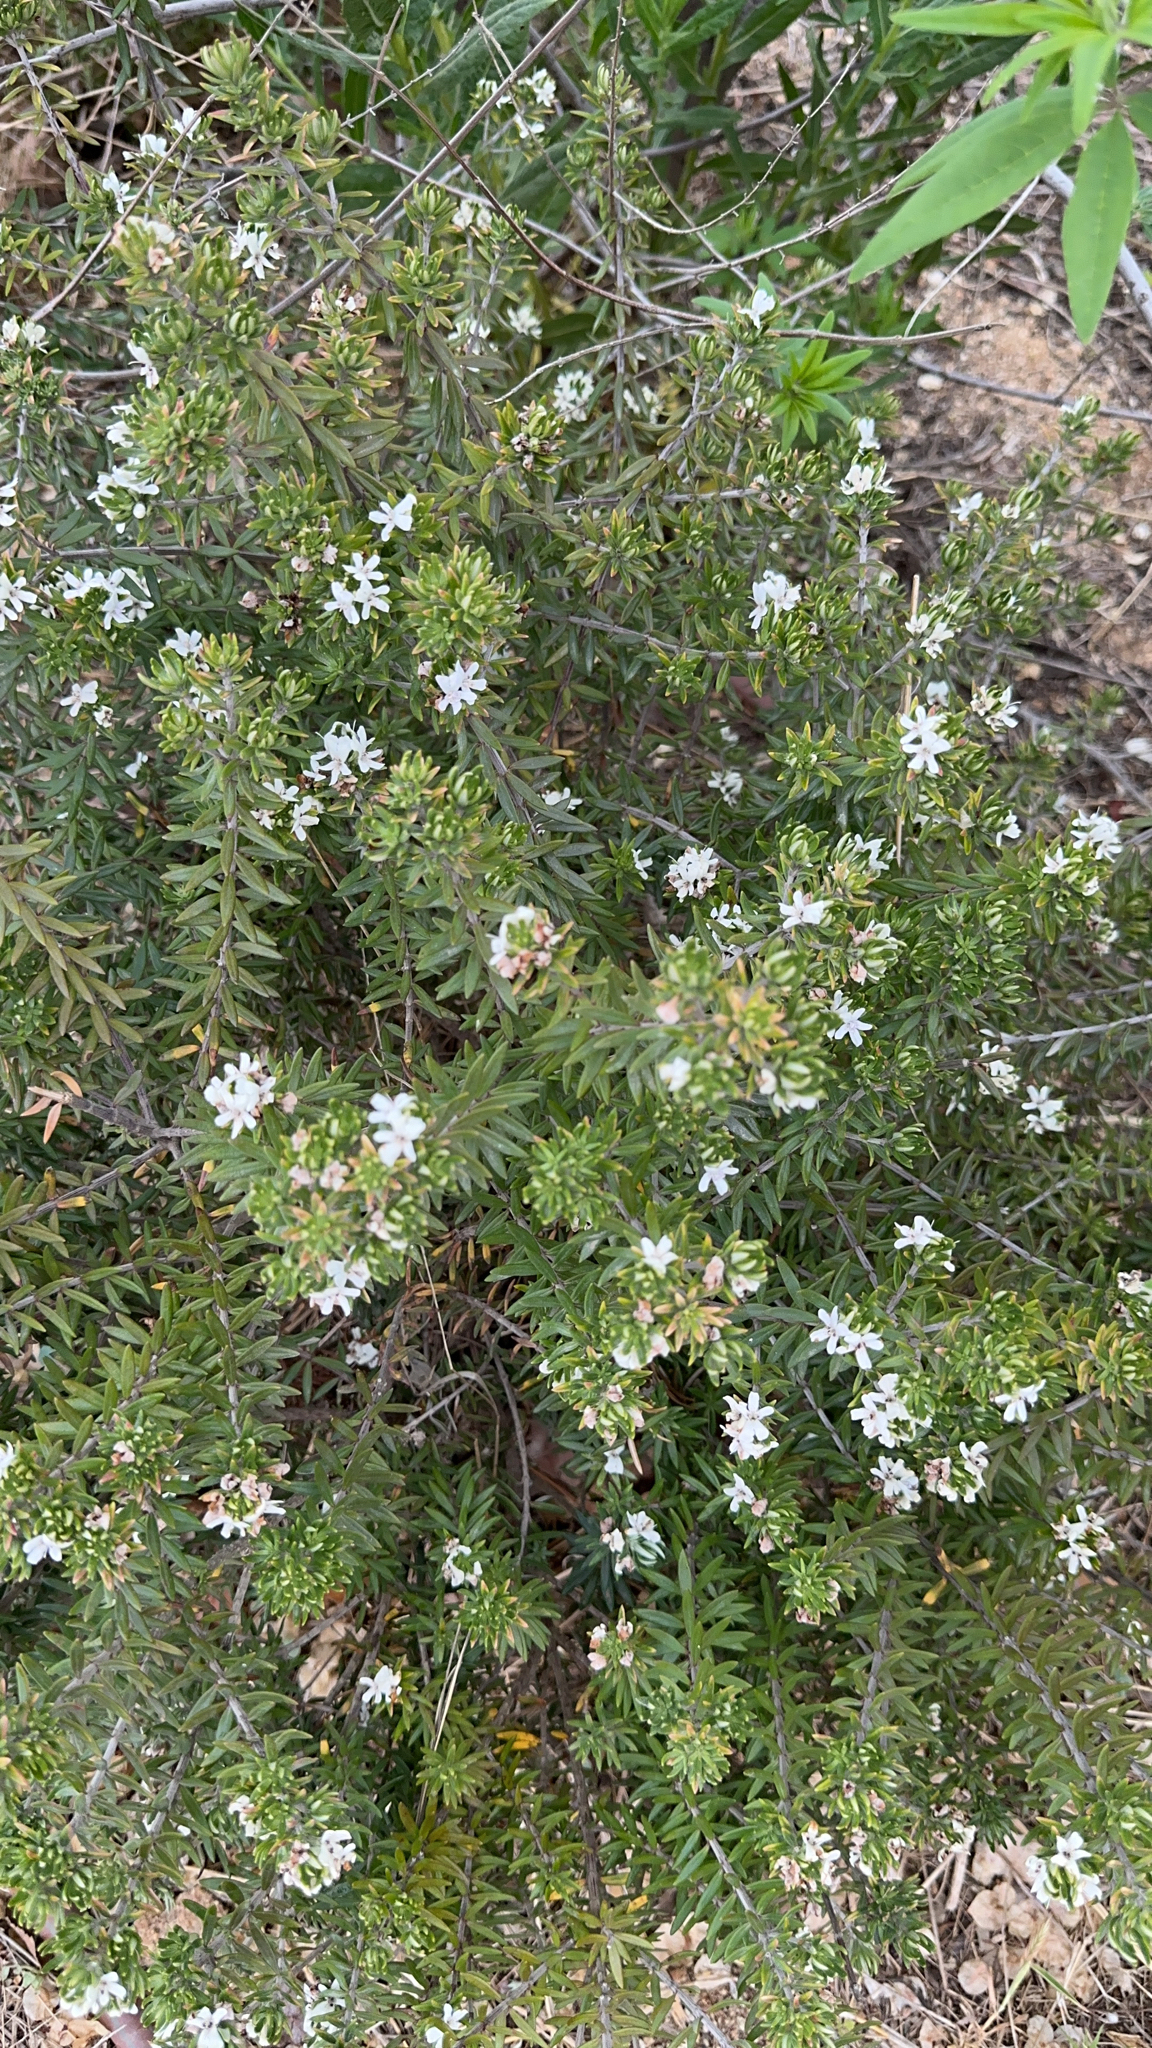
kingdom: Plantae
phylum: Tracheophyta
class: Magnoliopsida
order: Lamiales
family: Lamiaceae
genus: Westringia
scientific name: Westringia fruticosa
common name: Coastal-rosemary
